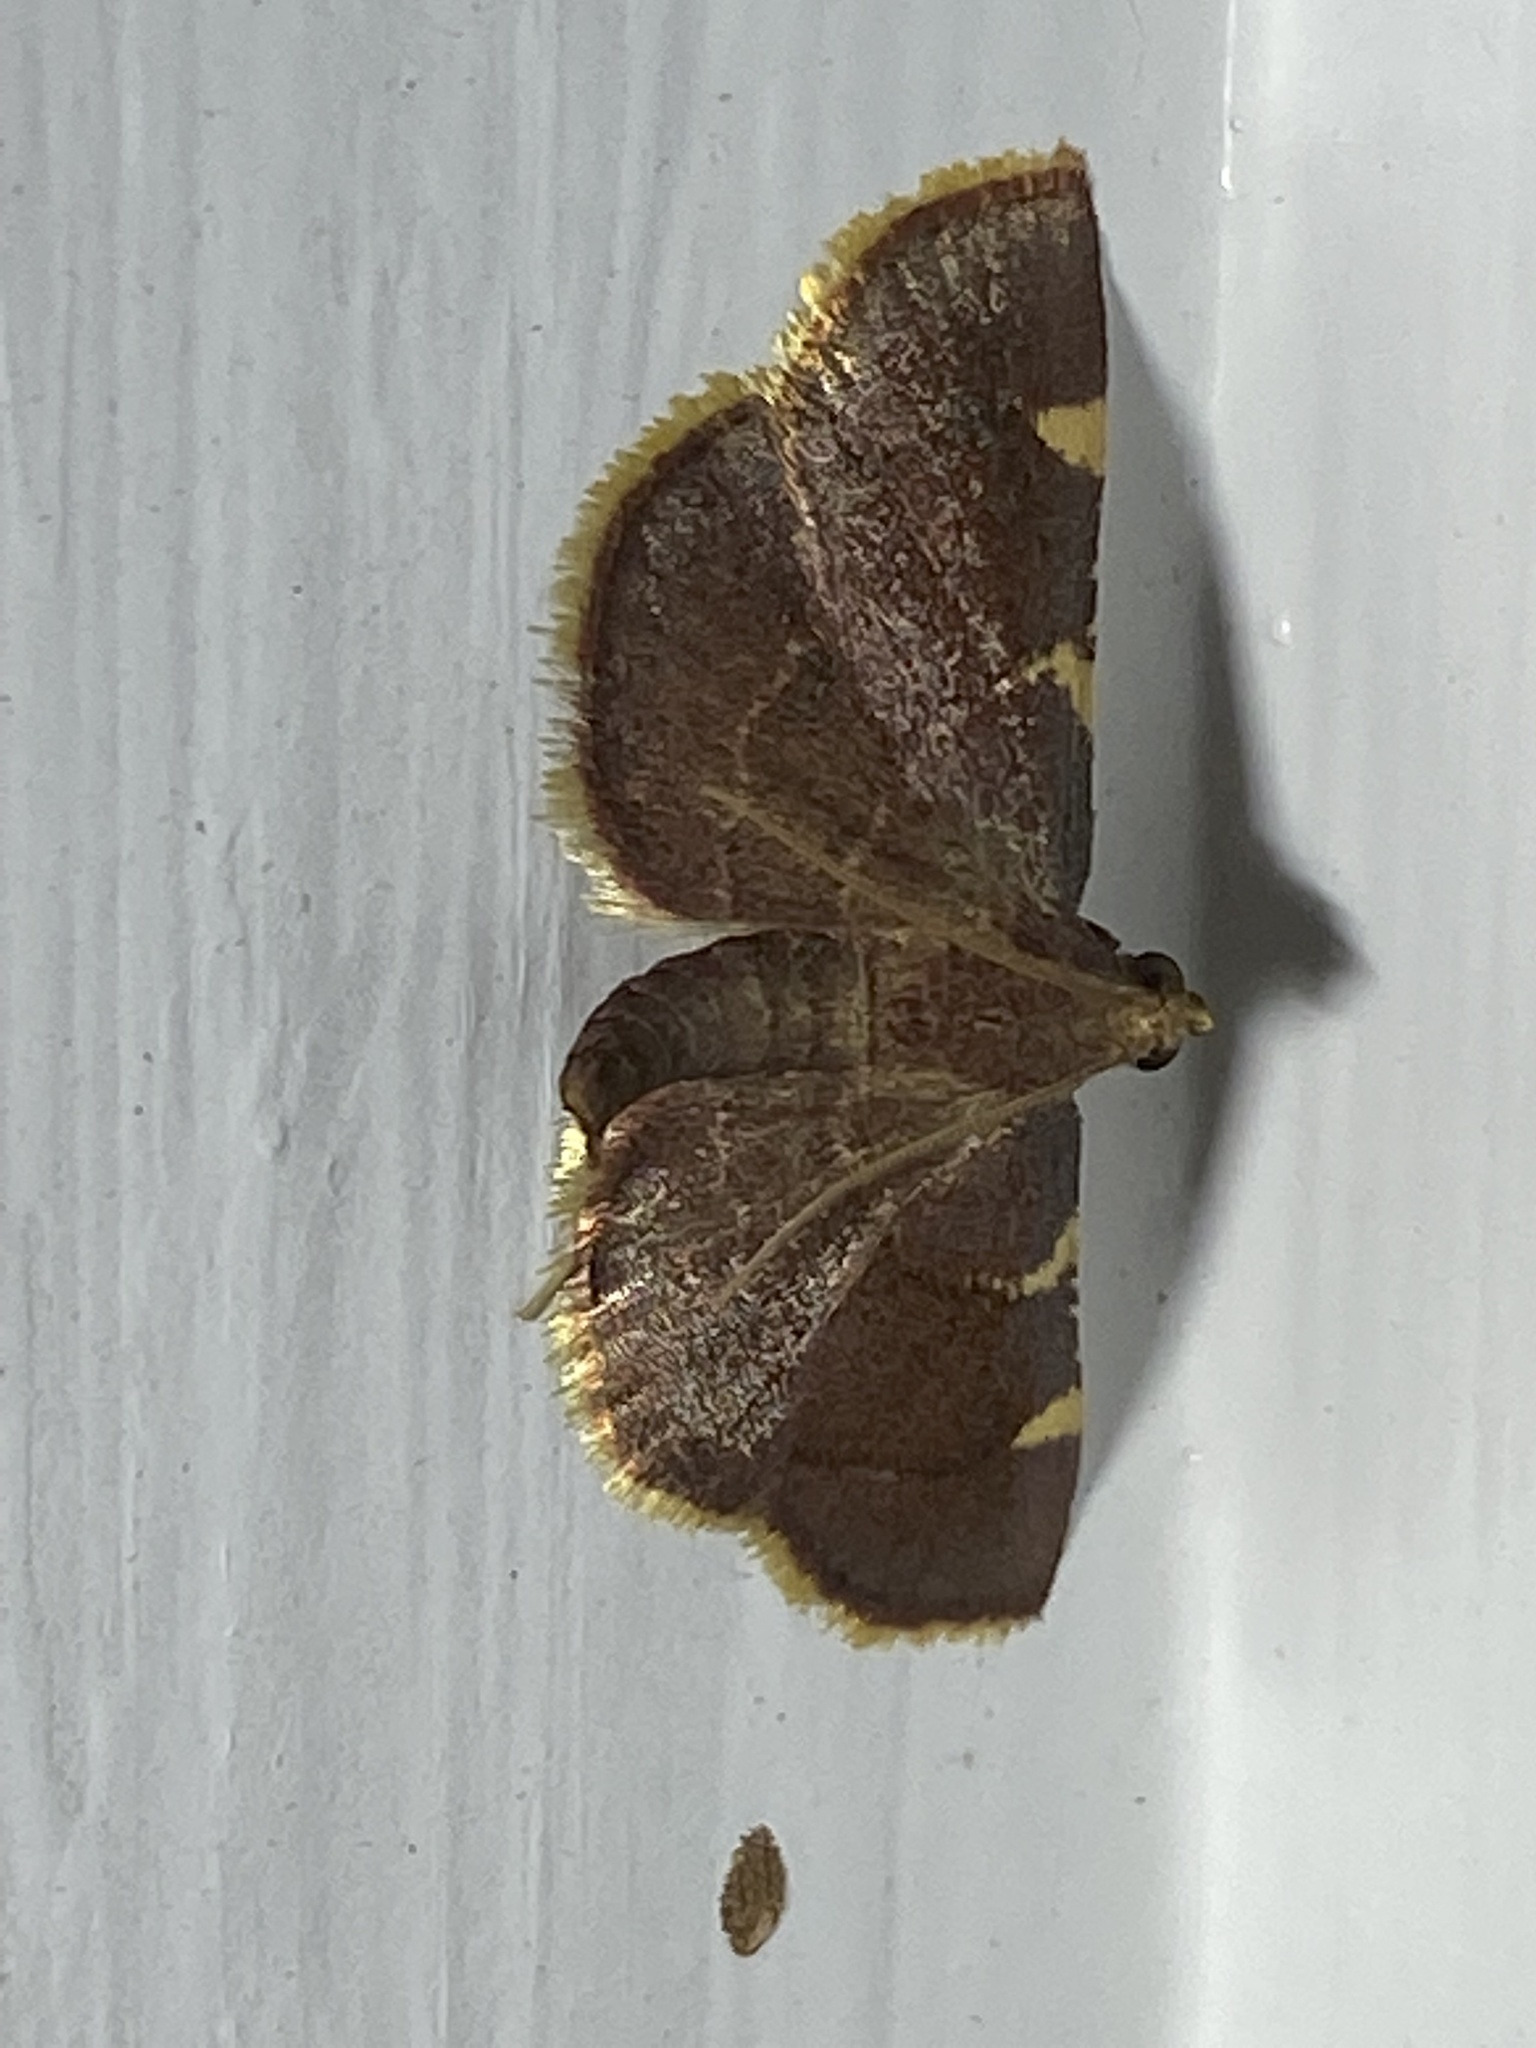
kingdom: Animalia
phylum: Arthropoda
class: Insecta
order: Lepidoptera
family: Pyralidae
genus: Hypsopygia
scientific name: Hypsopygia olinalis
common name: Yellow-fringed dolichomia moth
